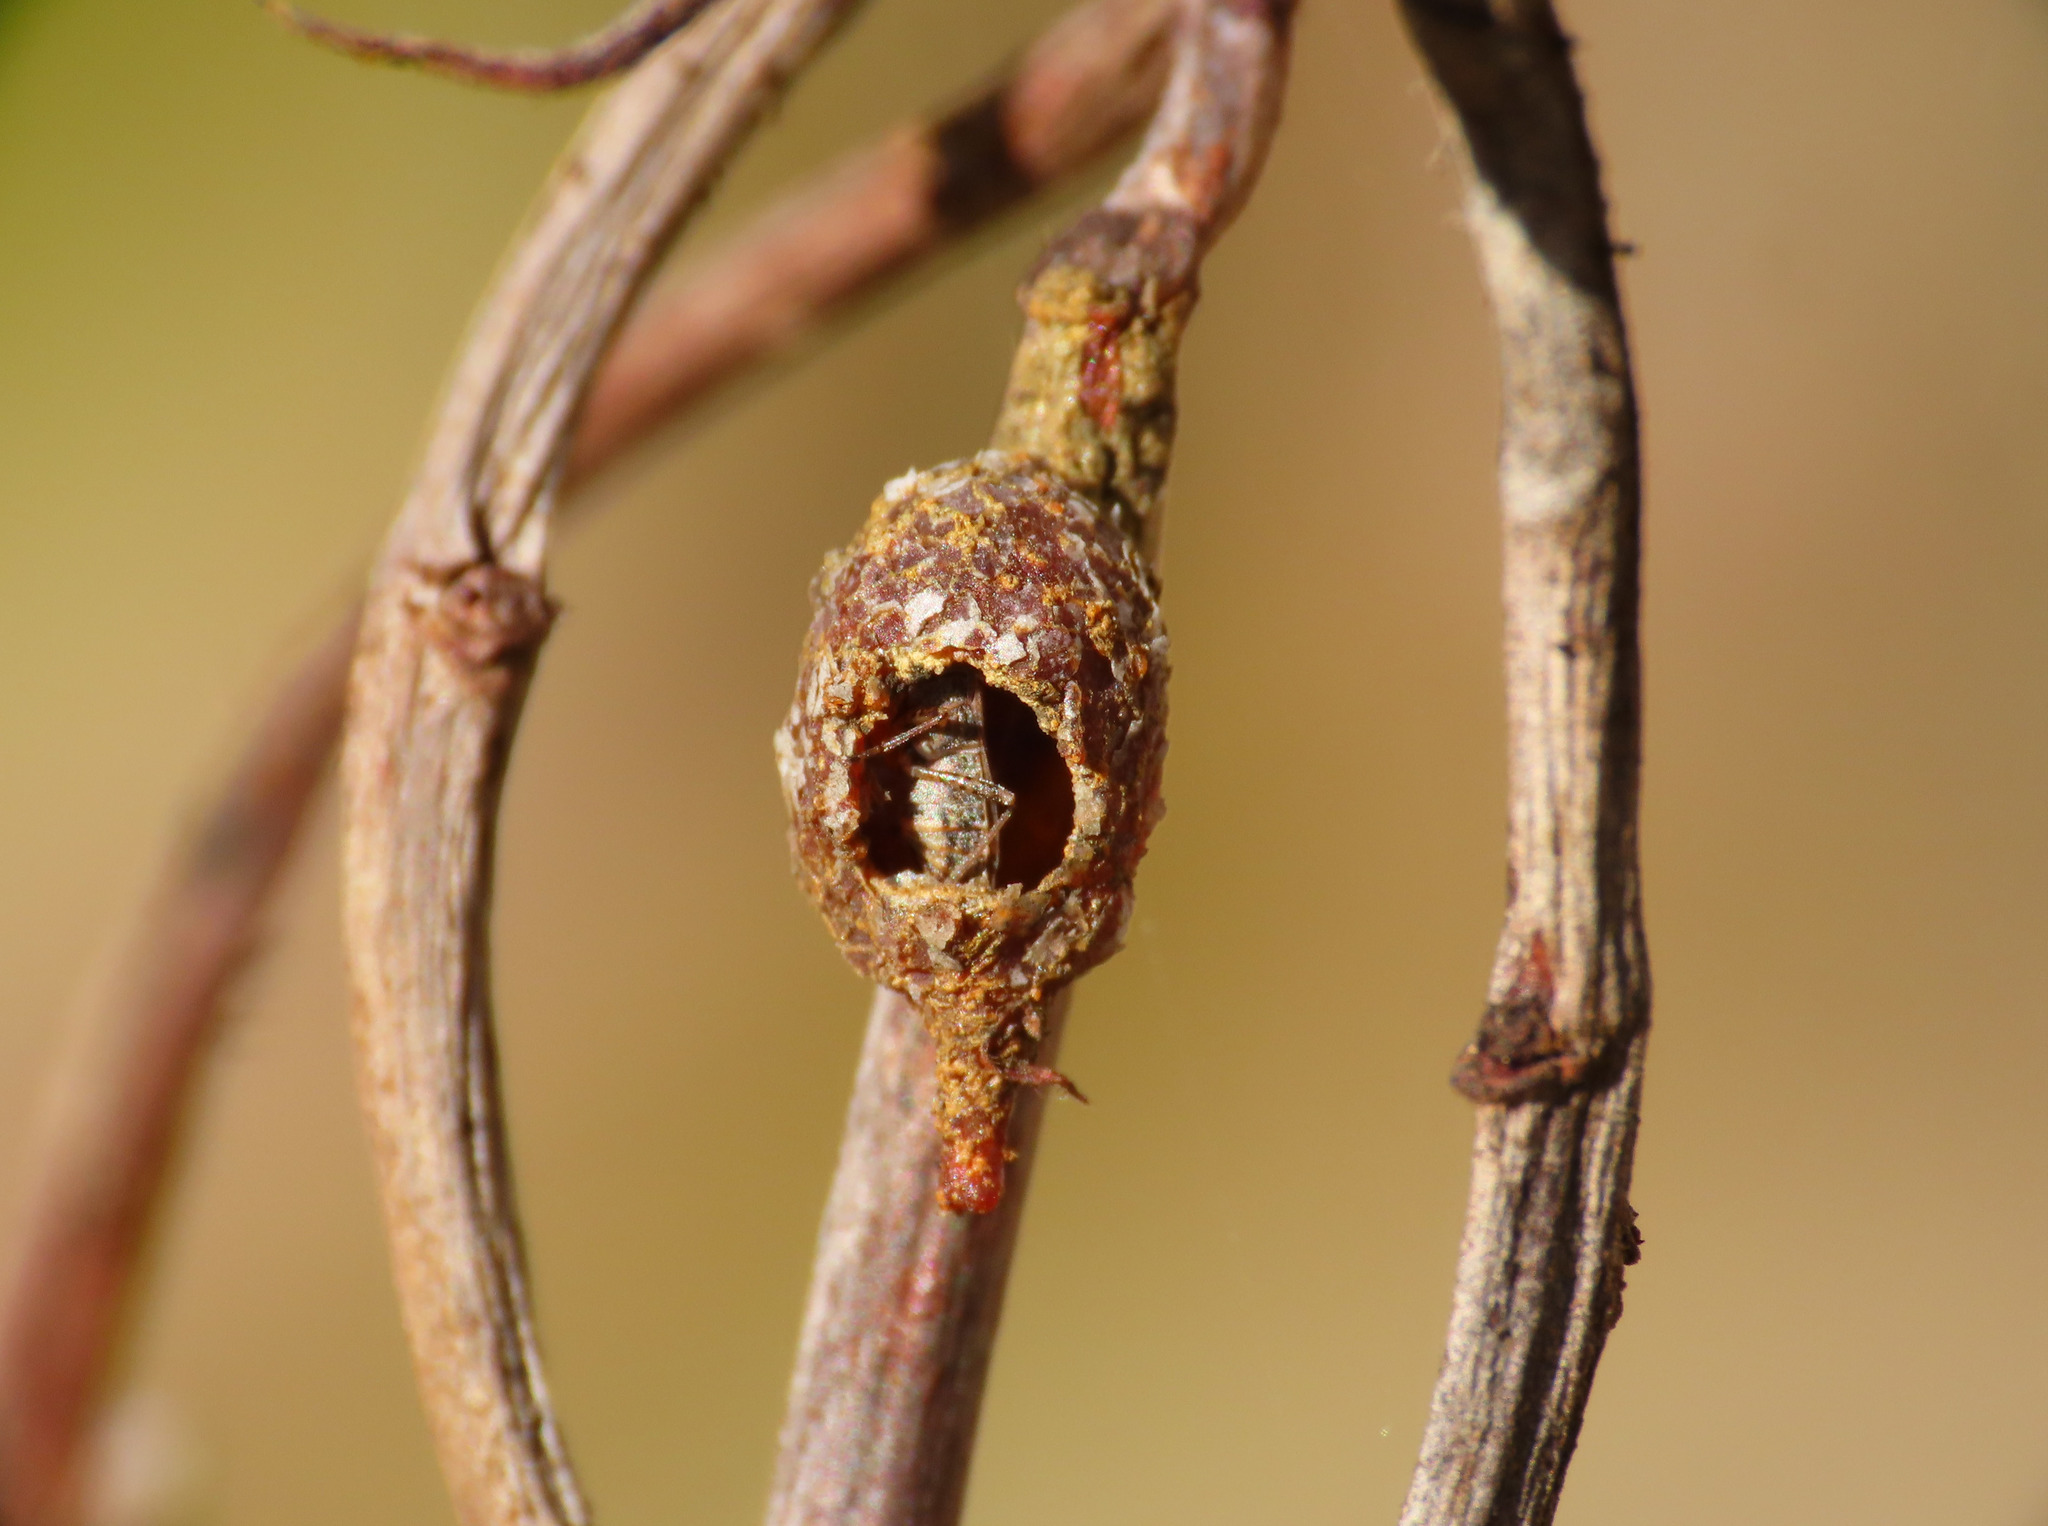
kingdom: Animalia
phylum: Arthropoda
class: Insecta
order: Hymenoptera
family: Megachilidae
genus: Anthidiellum
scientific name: Anthidiellum strigatum
